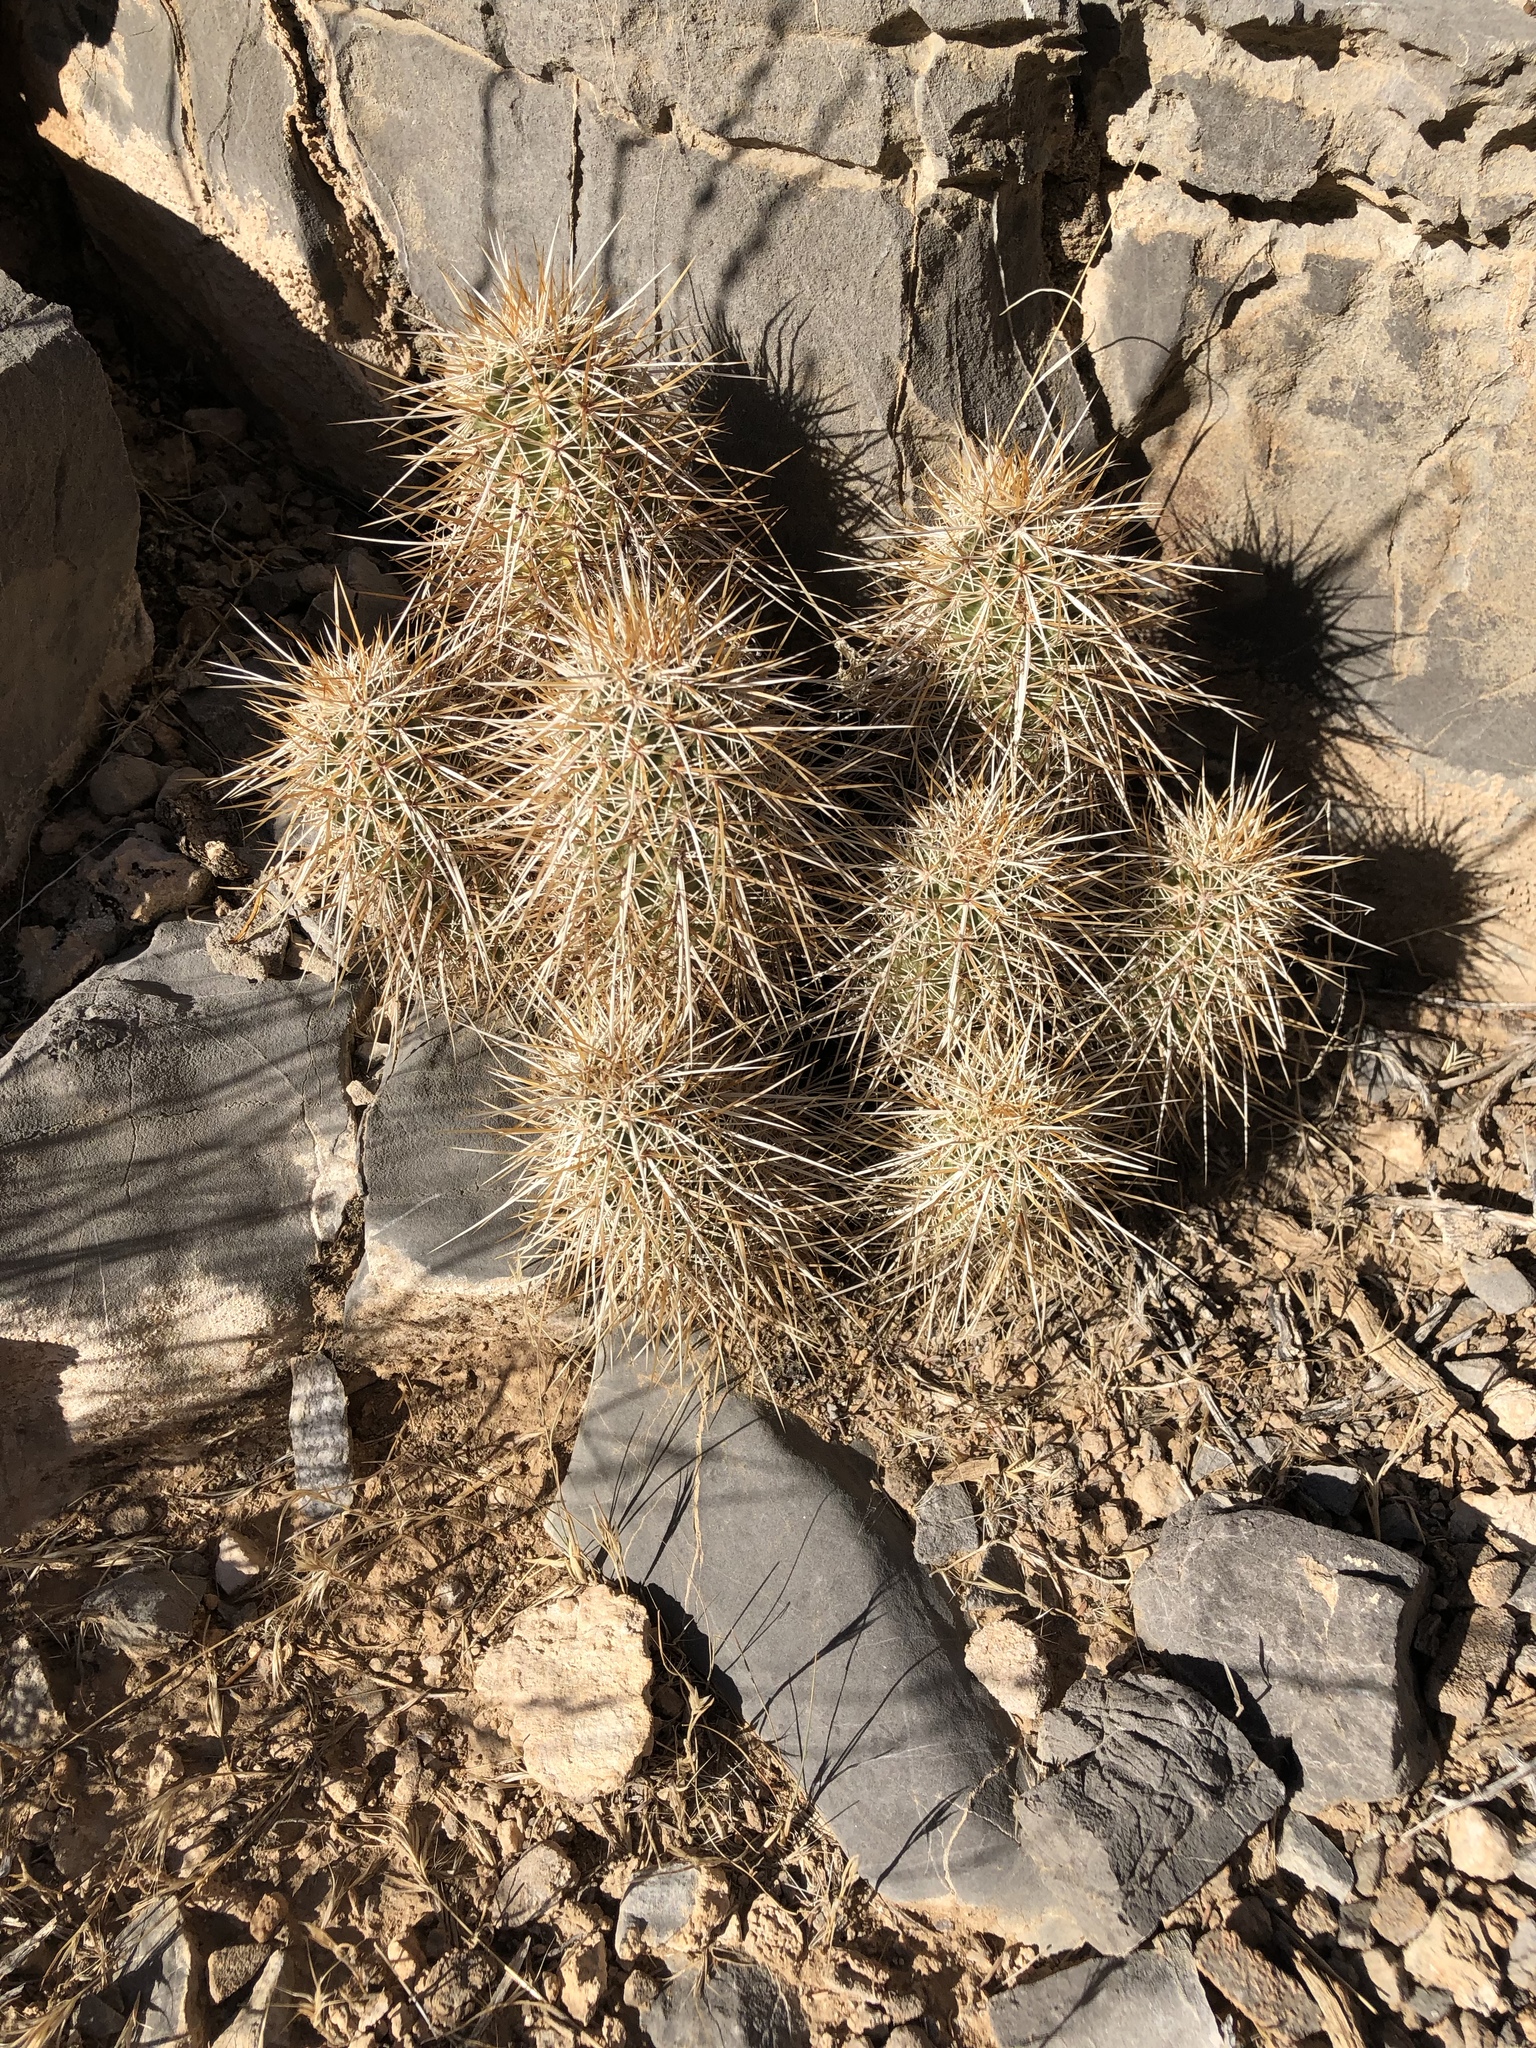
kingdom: Plantae
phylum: Tracheophyta
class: Magnoliopsida
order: Caryophyllales
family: Cactaceae
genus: Echinocereus
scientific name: Echinocereus engelmannii
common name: Engelmann's hedgehog cactus
